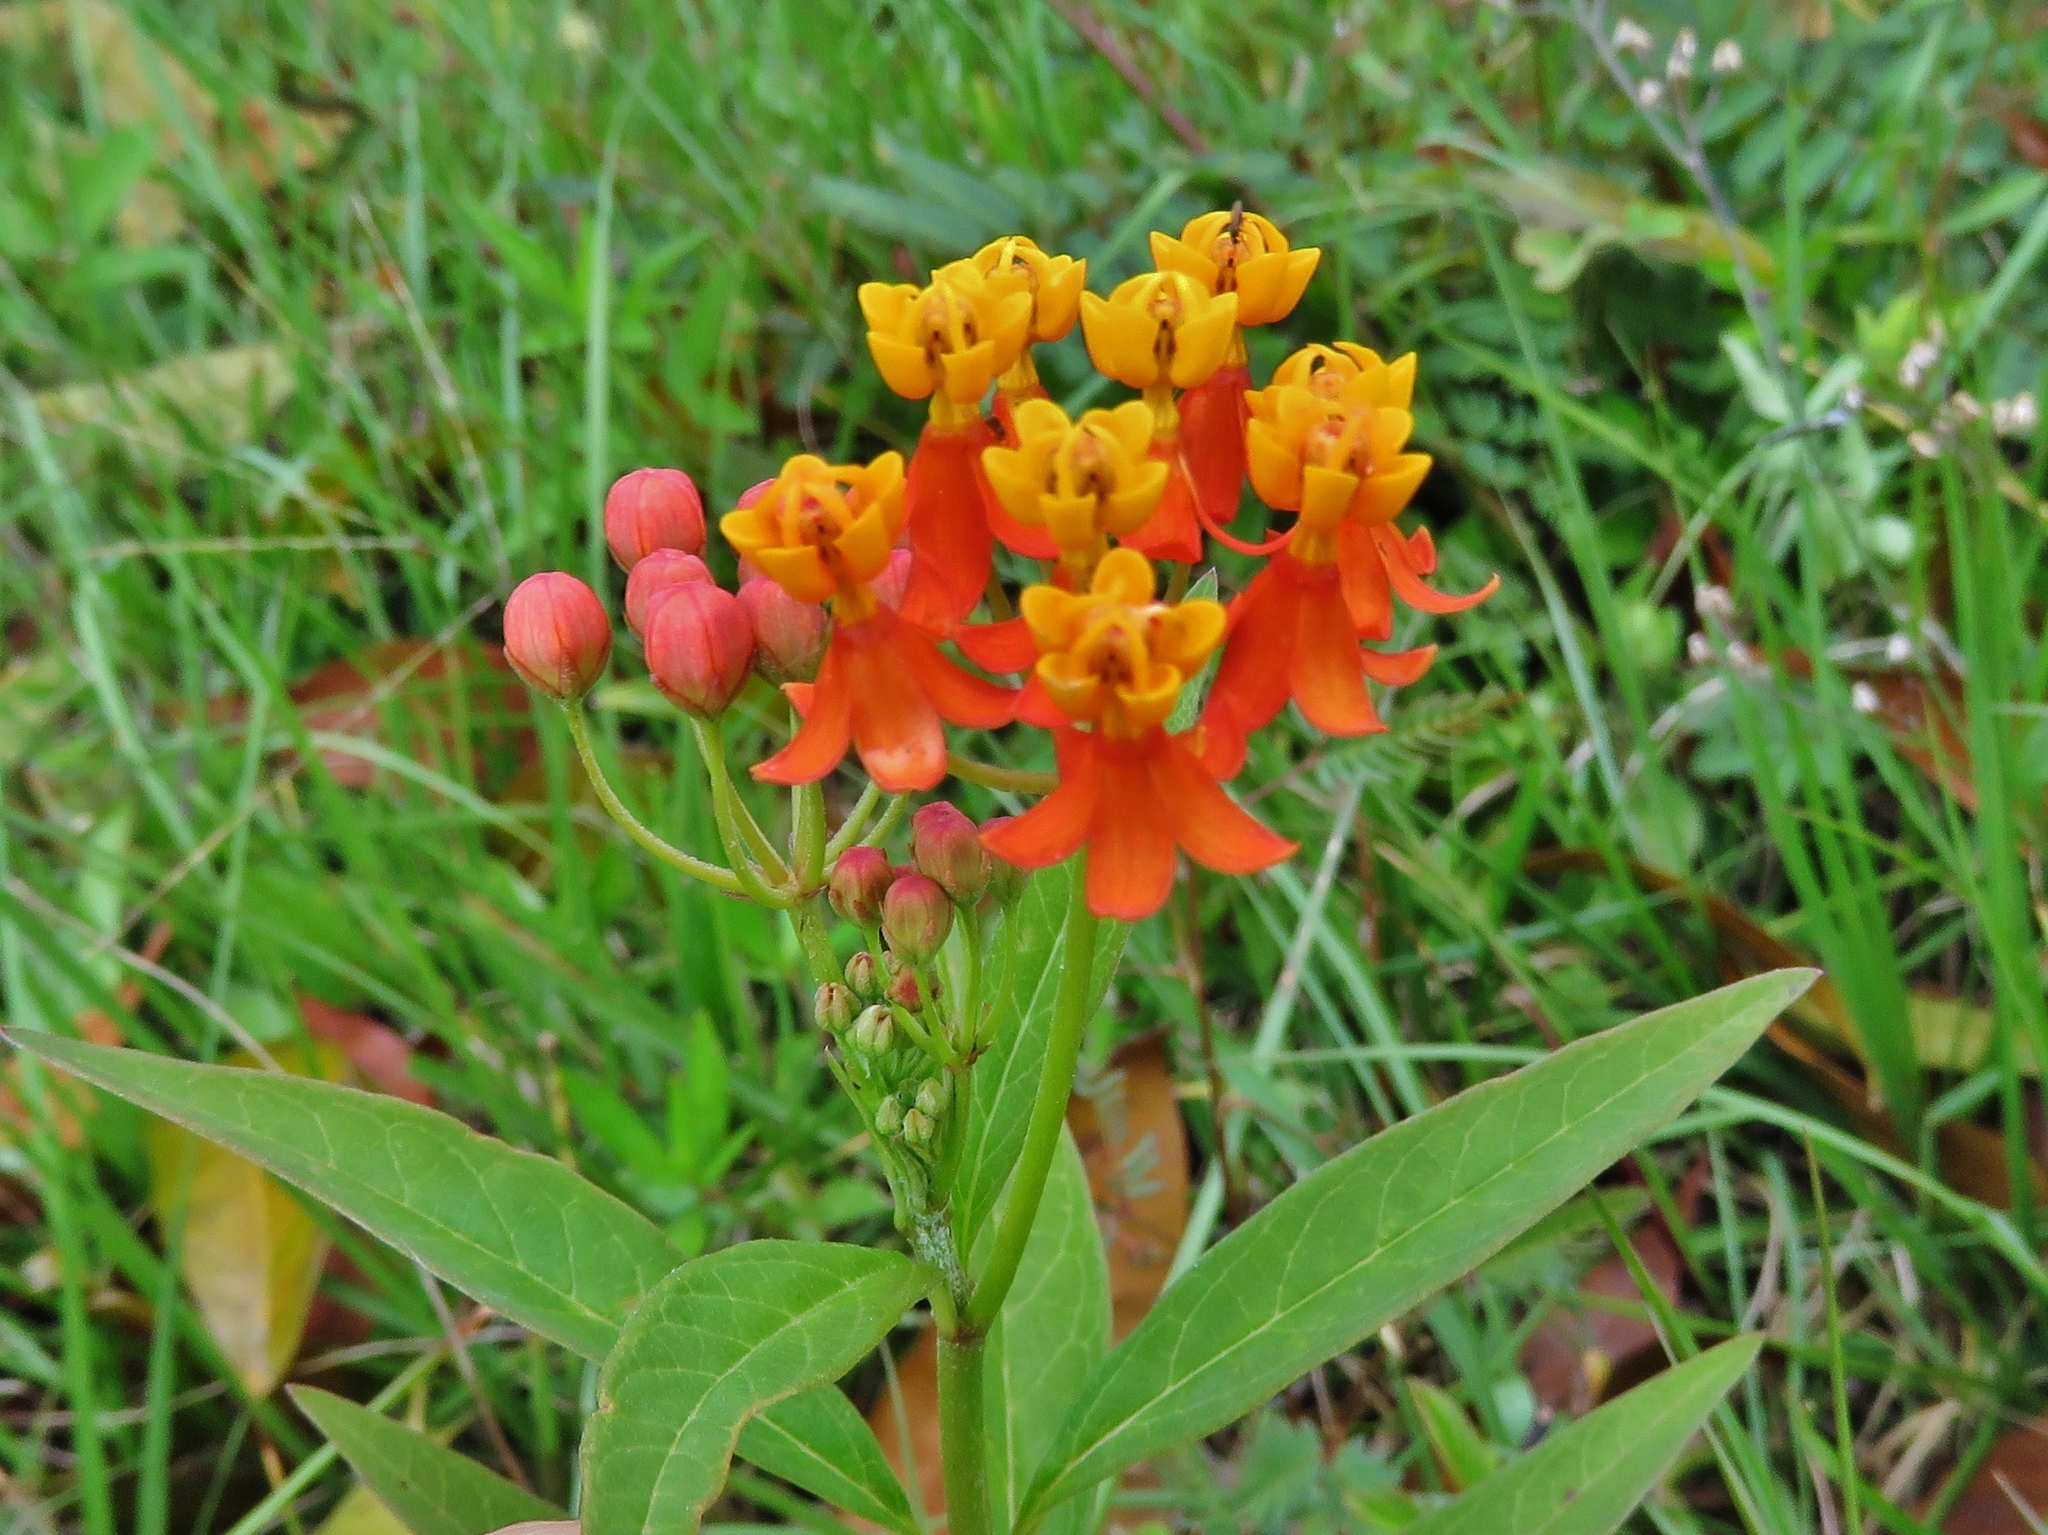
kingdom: Plantae
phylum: Tracheophyta
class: Magnoliopsida
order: Gentianales
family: Apocynaceae
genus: Asclepias
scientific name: Asclepias curassavica
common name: Bloodflower
